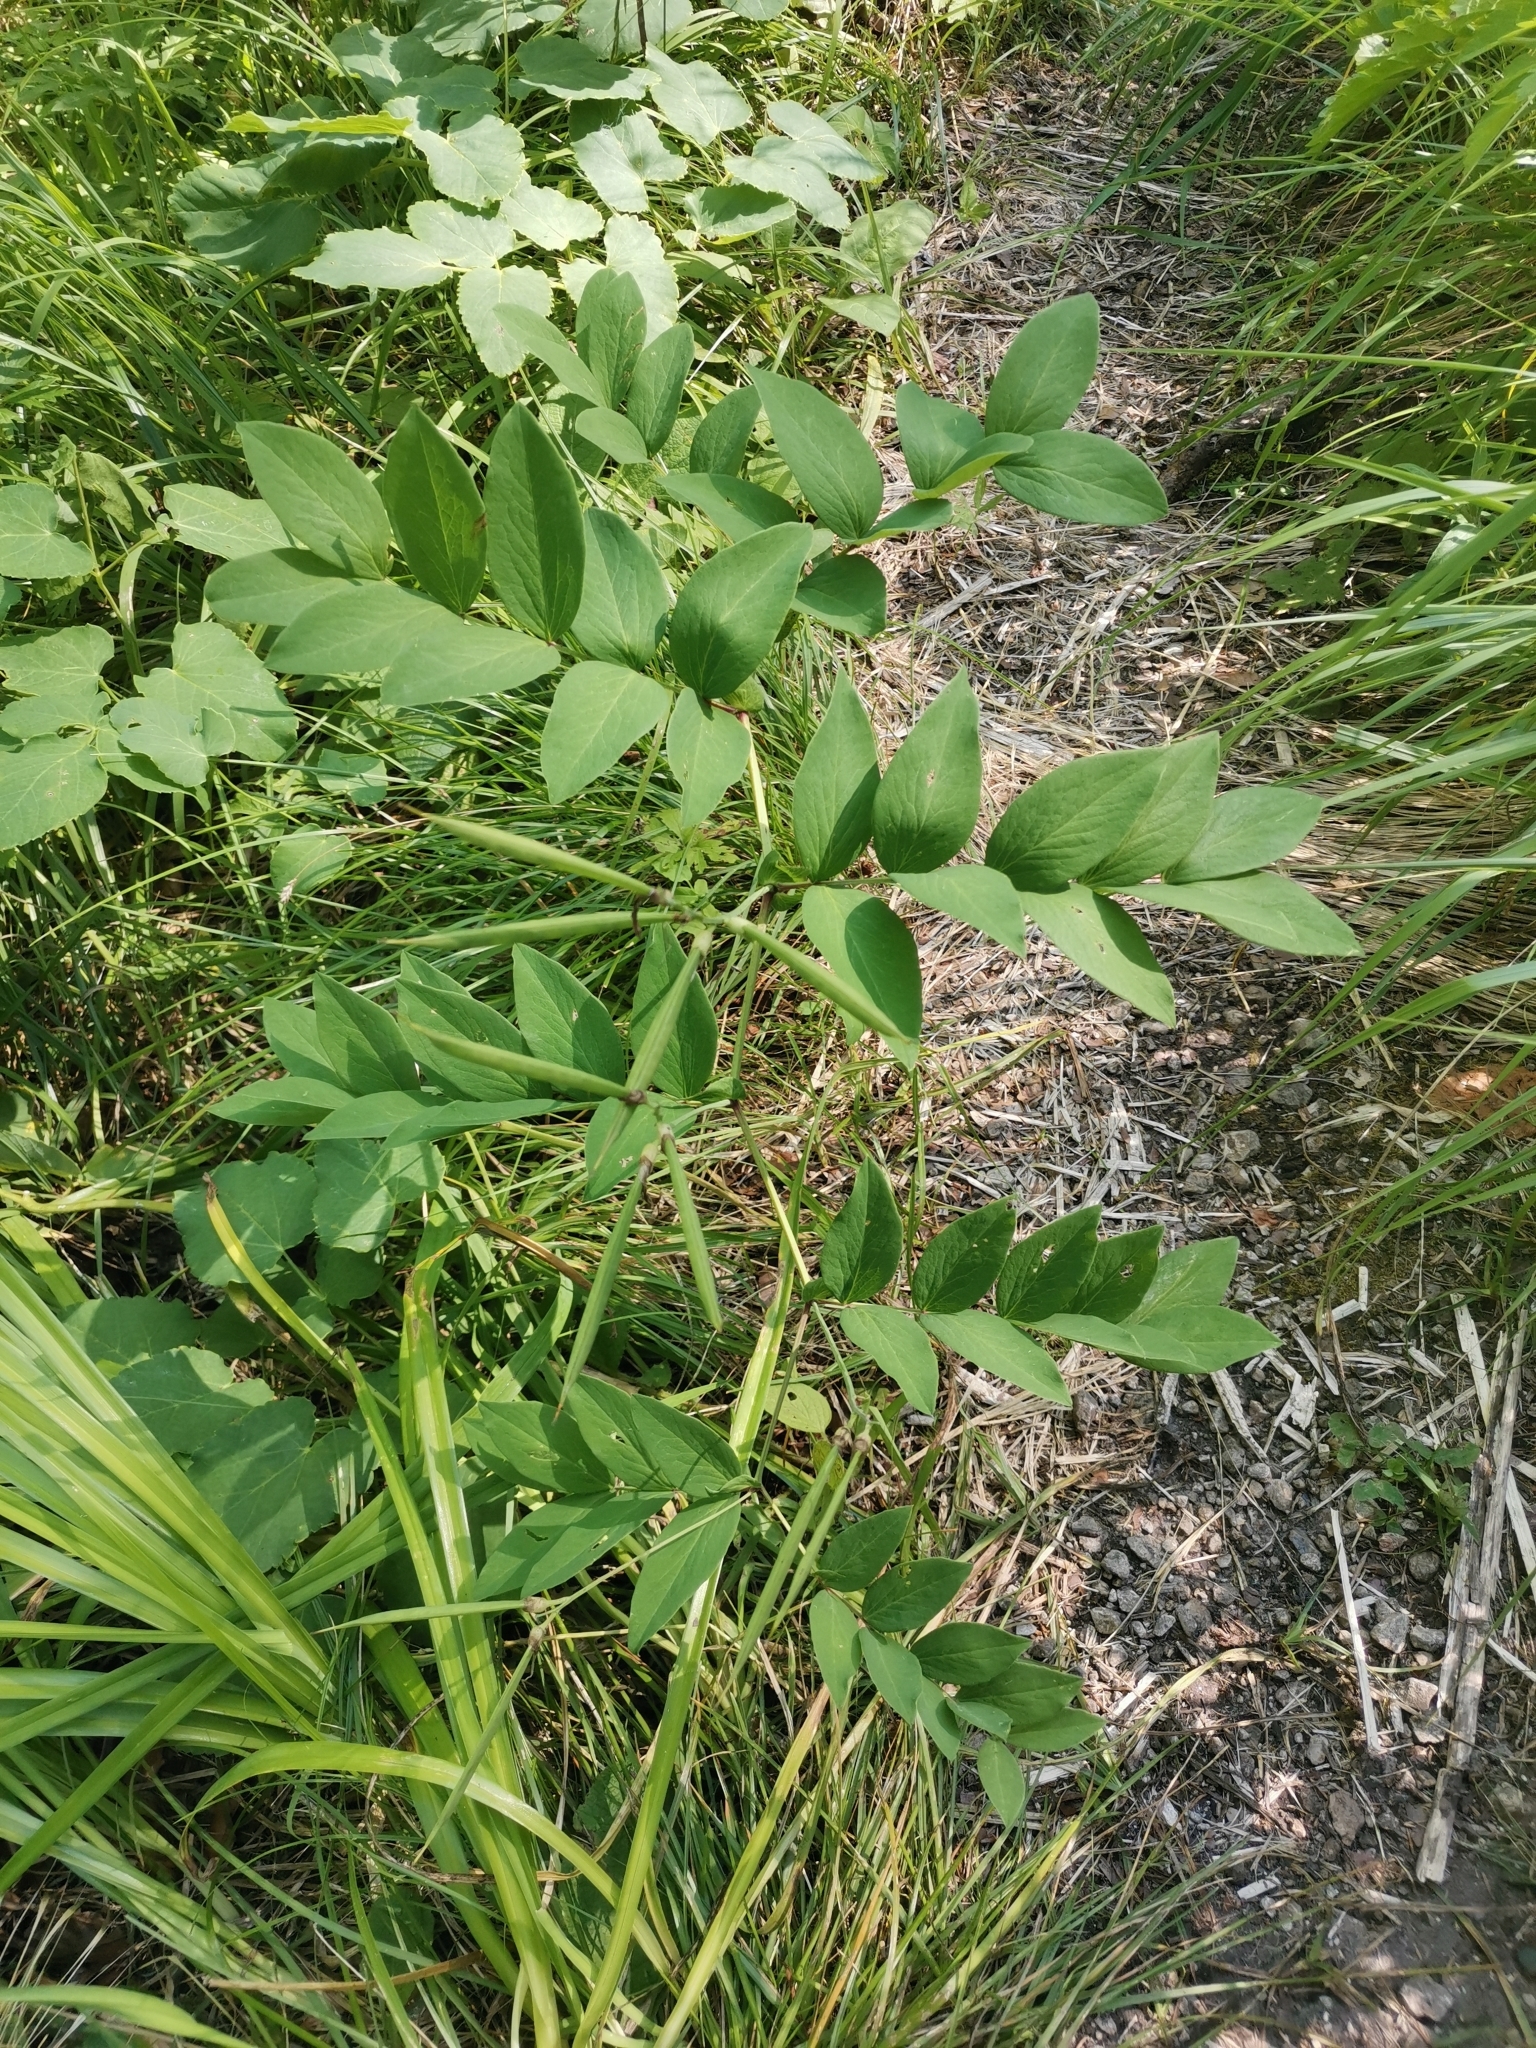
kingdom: Plantae
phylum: Tracheophyta
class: Magnoliopsida
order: Fabales
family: Fabaceae
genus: Lathyrus
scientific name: Lathyrus laevigatus
